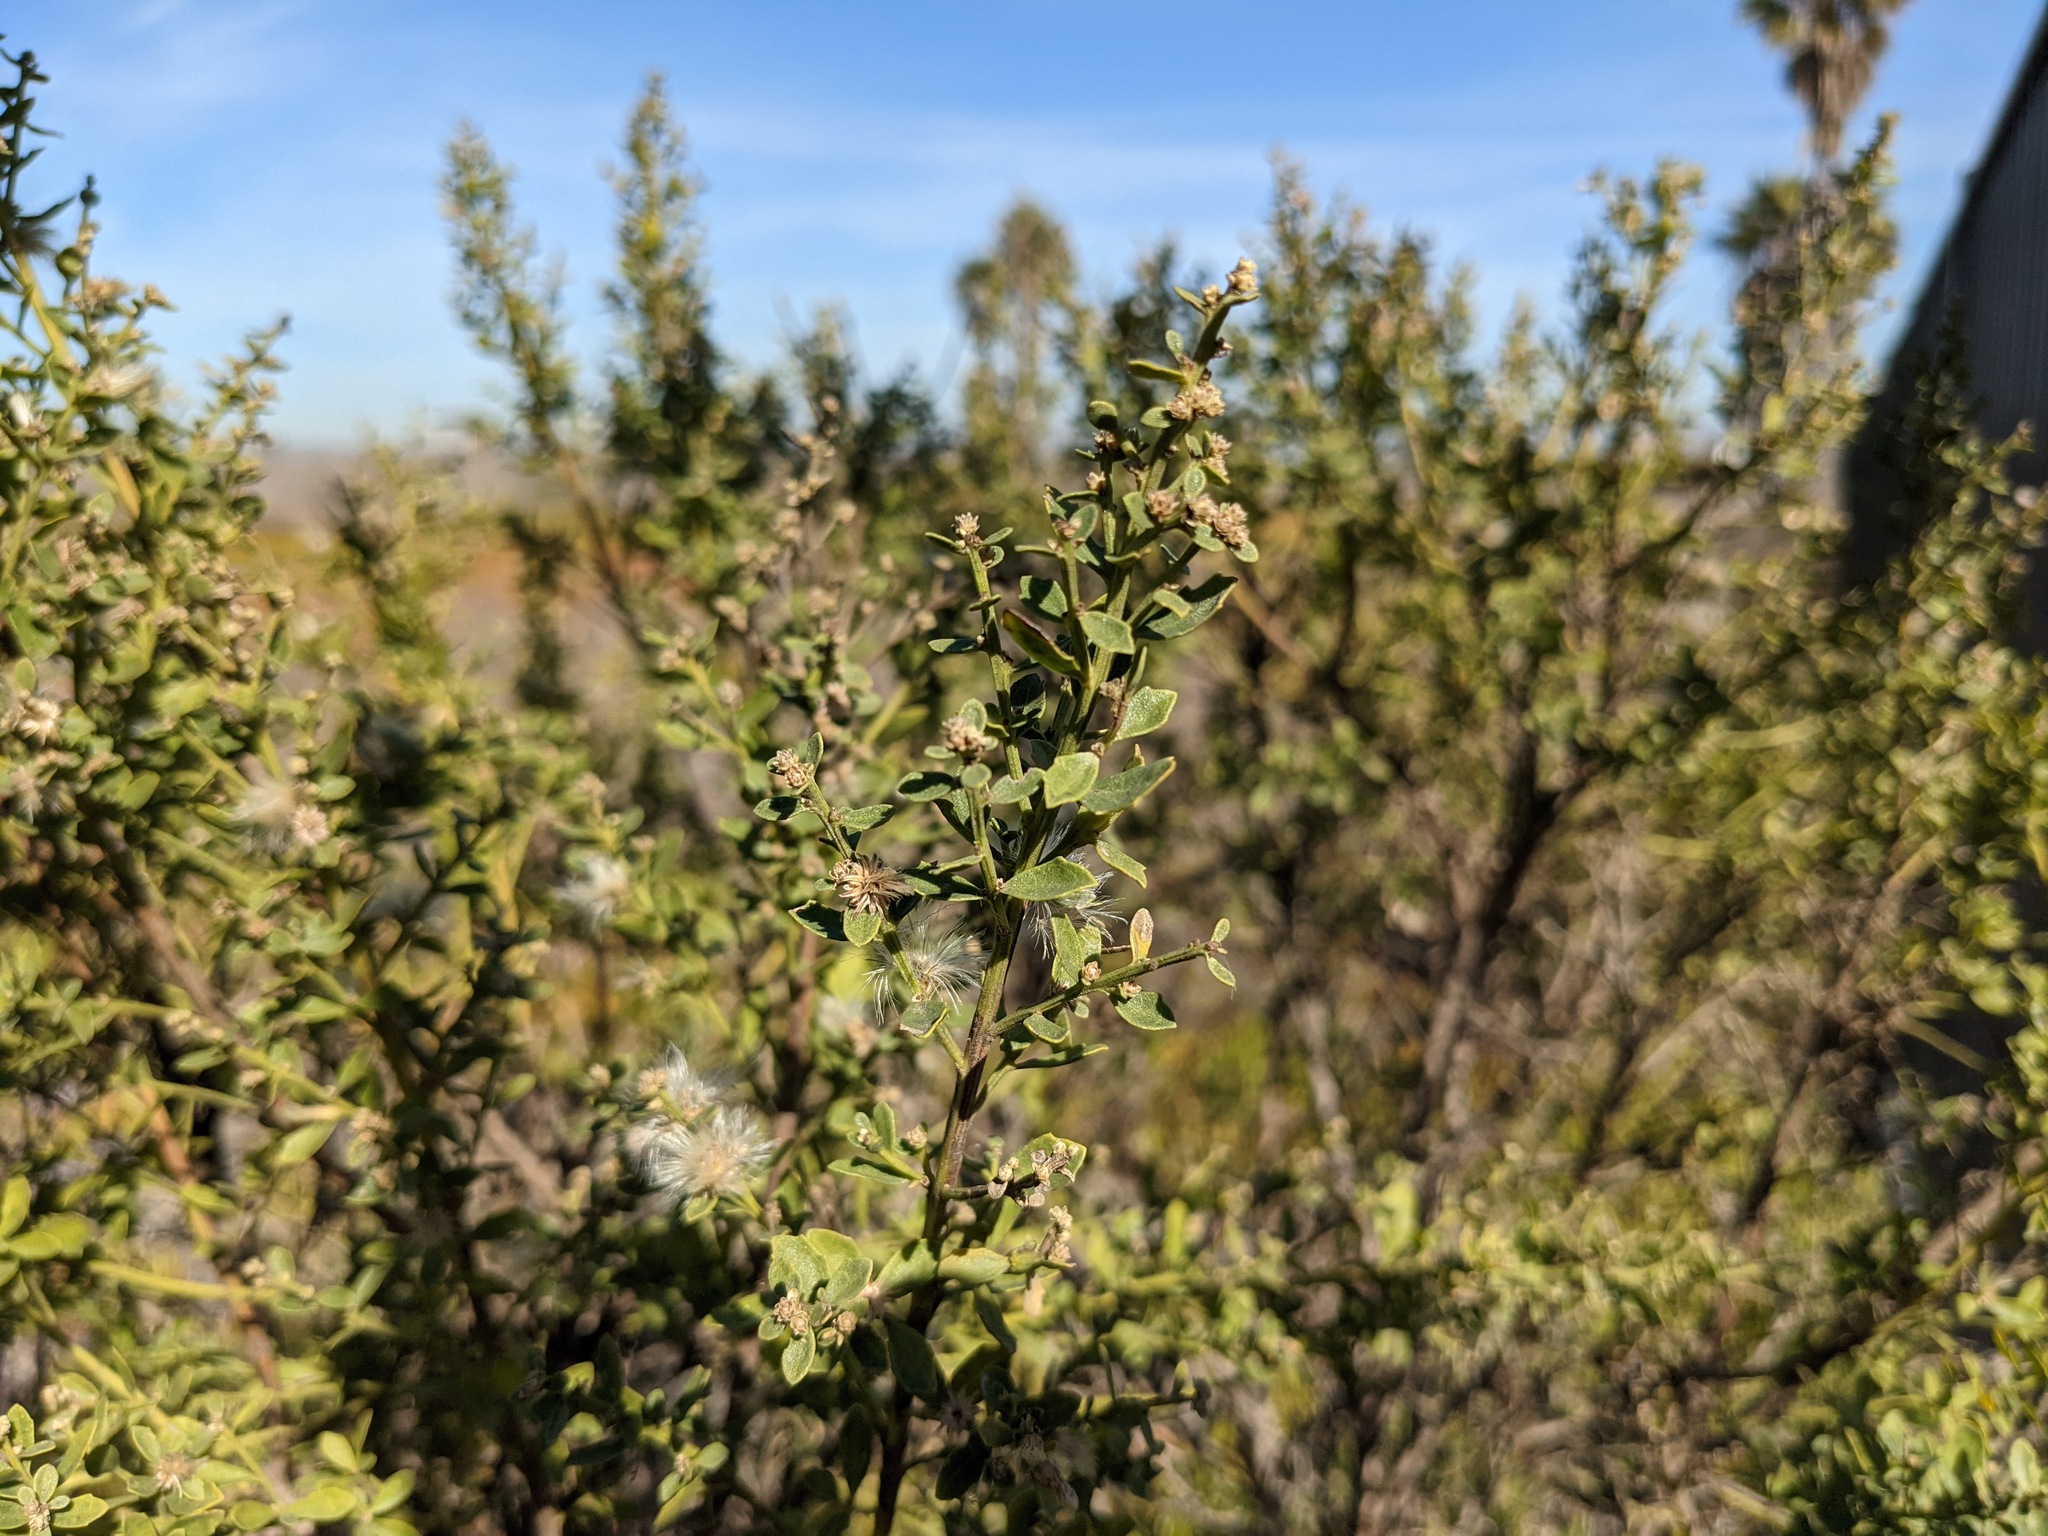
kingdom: Plantae
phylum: Tracheophyta
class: Magnoliopsida
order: Asterales
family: Asteraceae
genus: Baccharis
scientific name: Baccharis pilularis
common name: Coyotebrush
